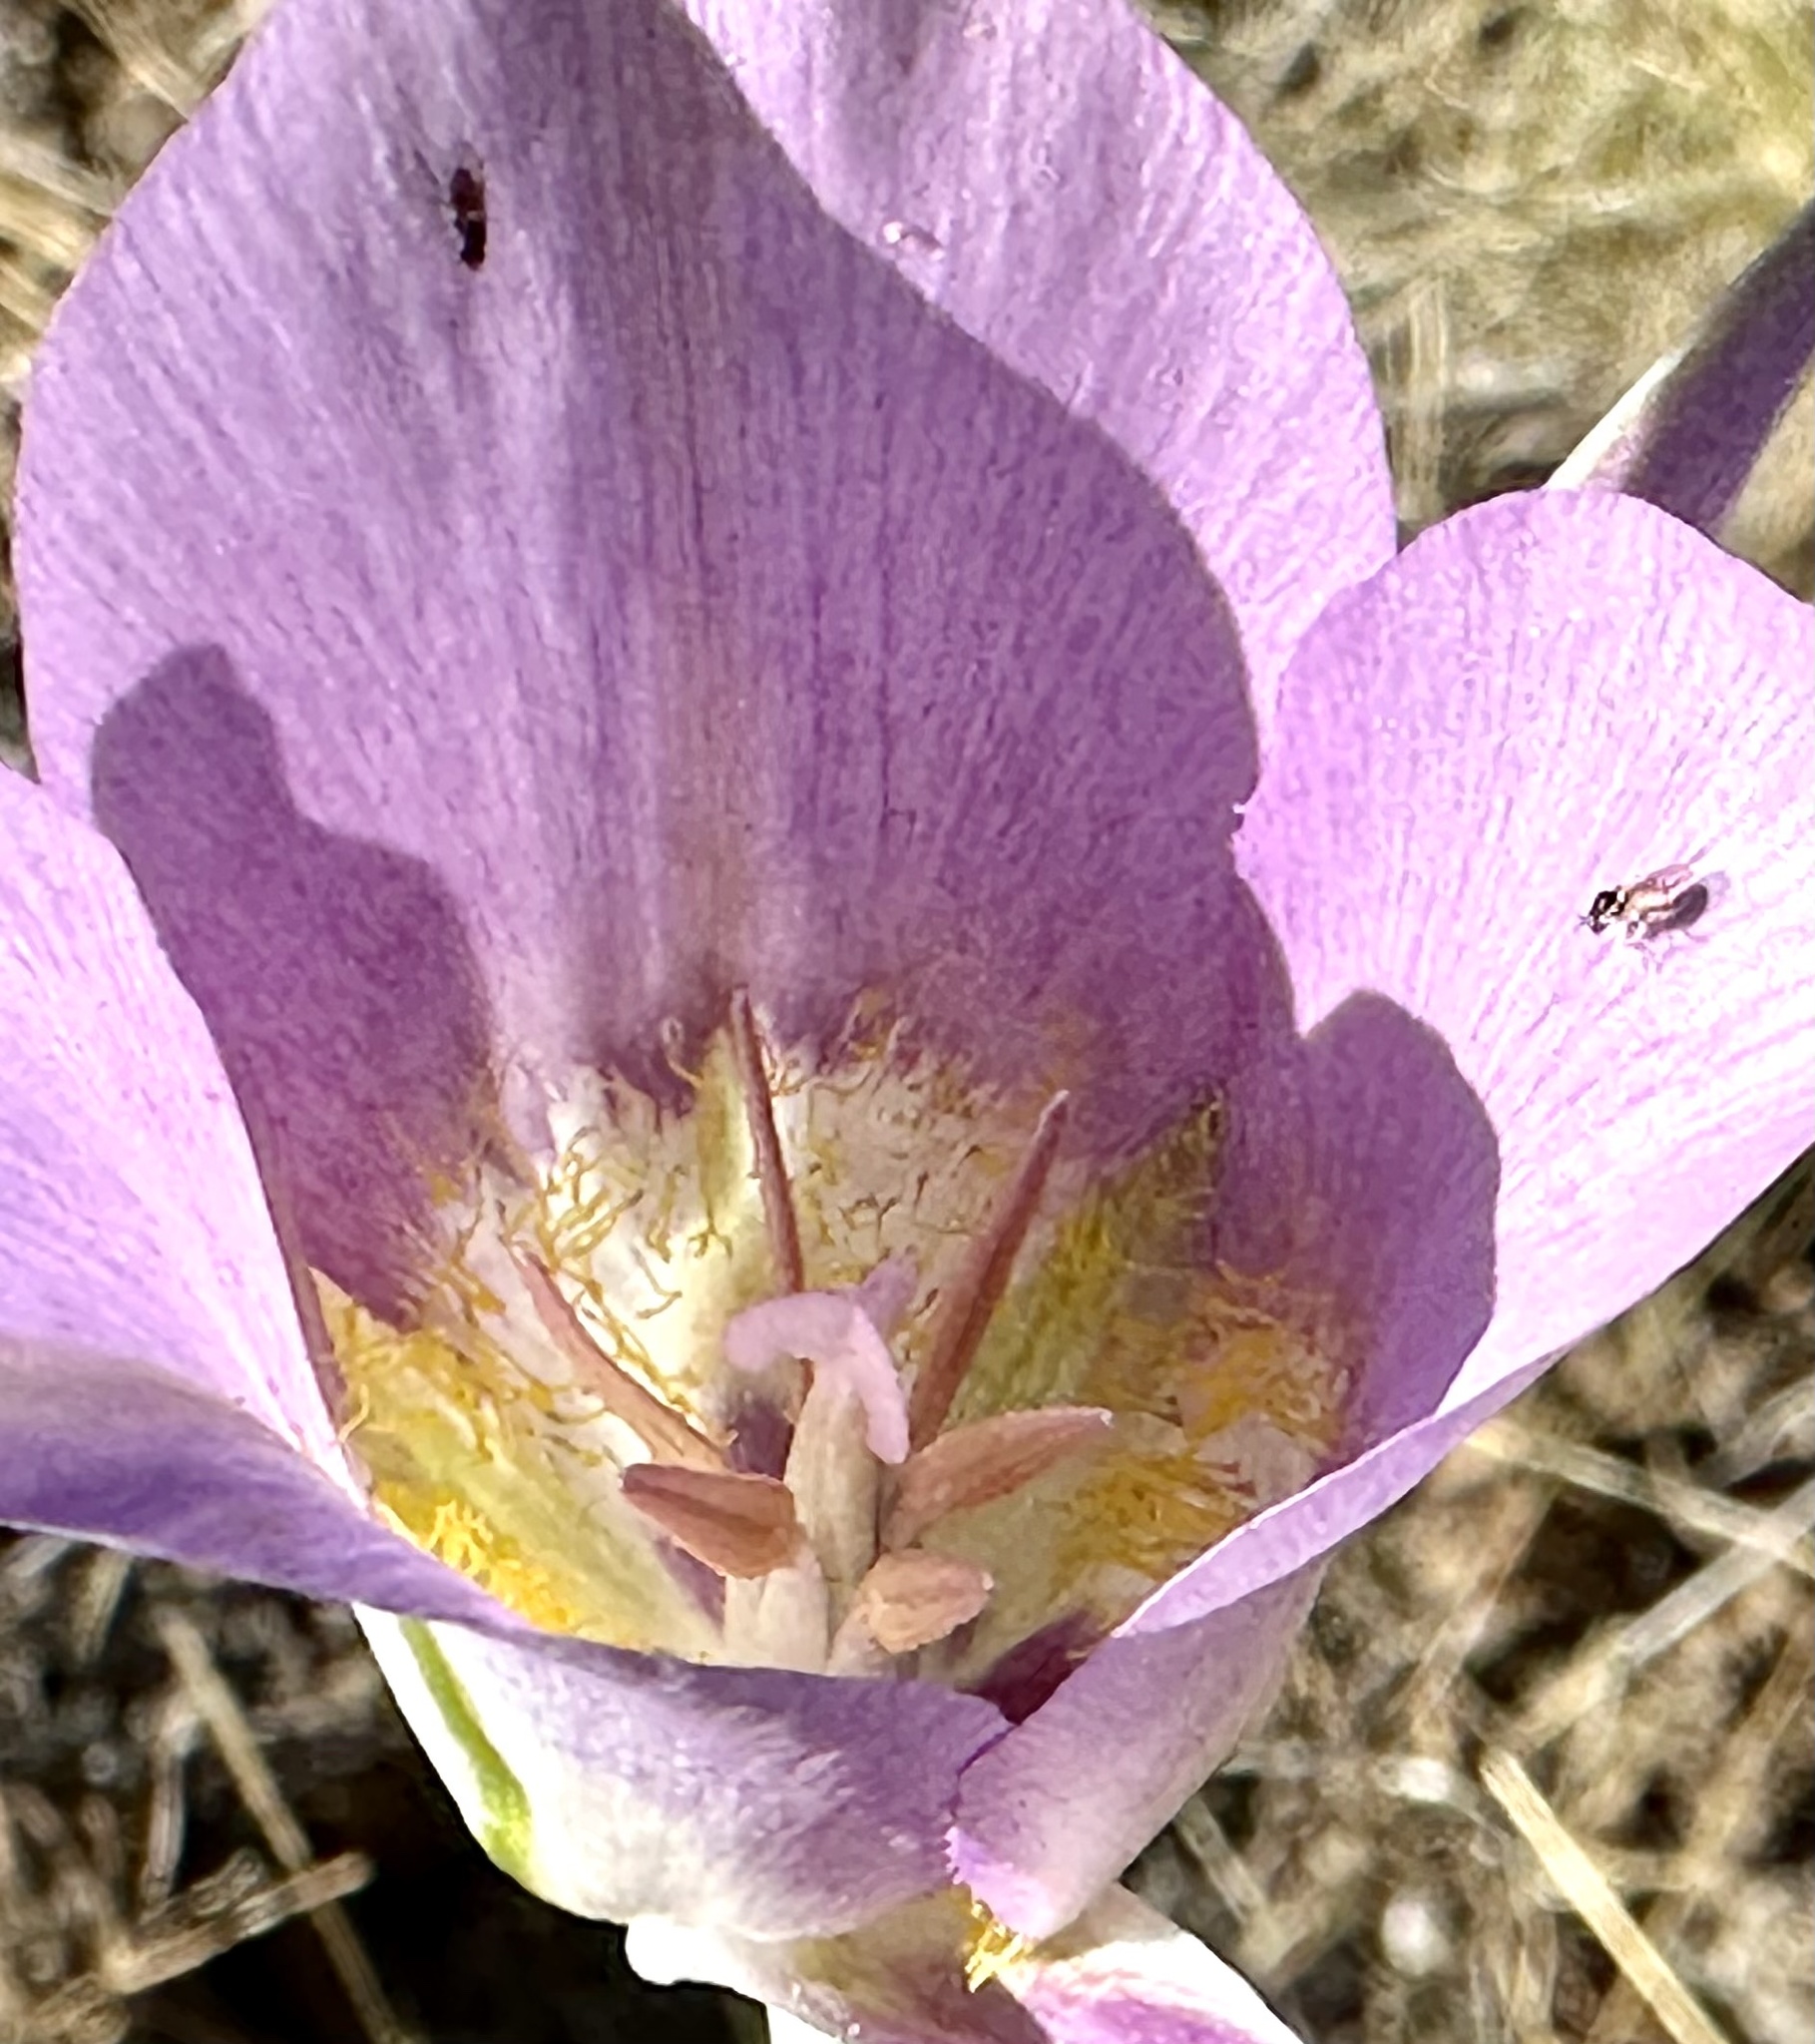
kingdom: Plantae
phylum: Tracheophyta
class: Liliopsida
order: Liliales
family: Liliaceae
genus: Calochortus
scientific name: Calochortus macrocarpus
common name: Green-band mariposa lily
